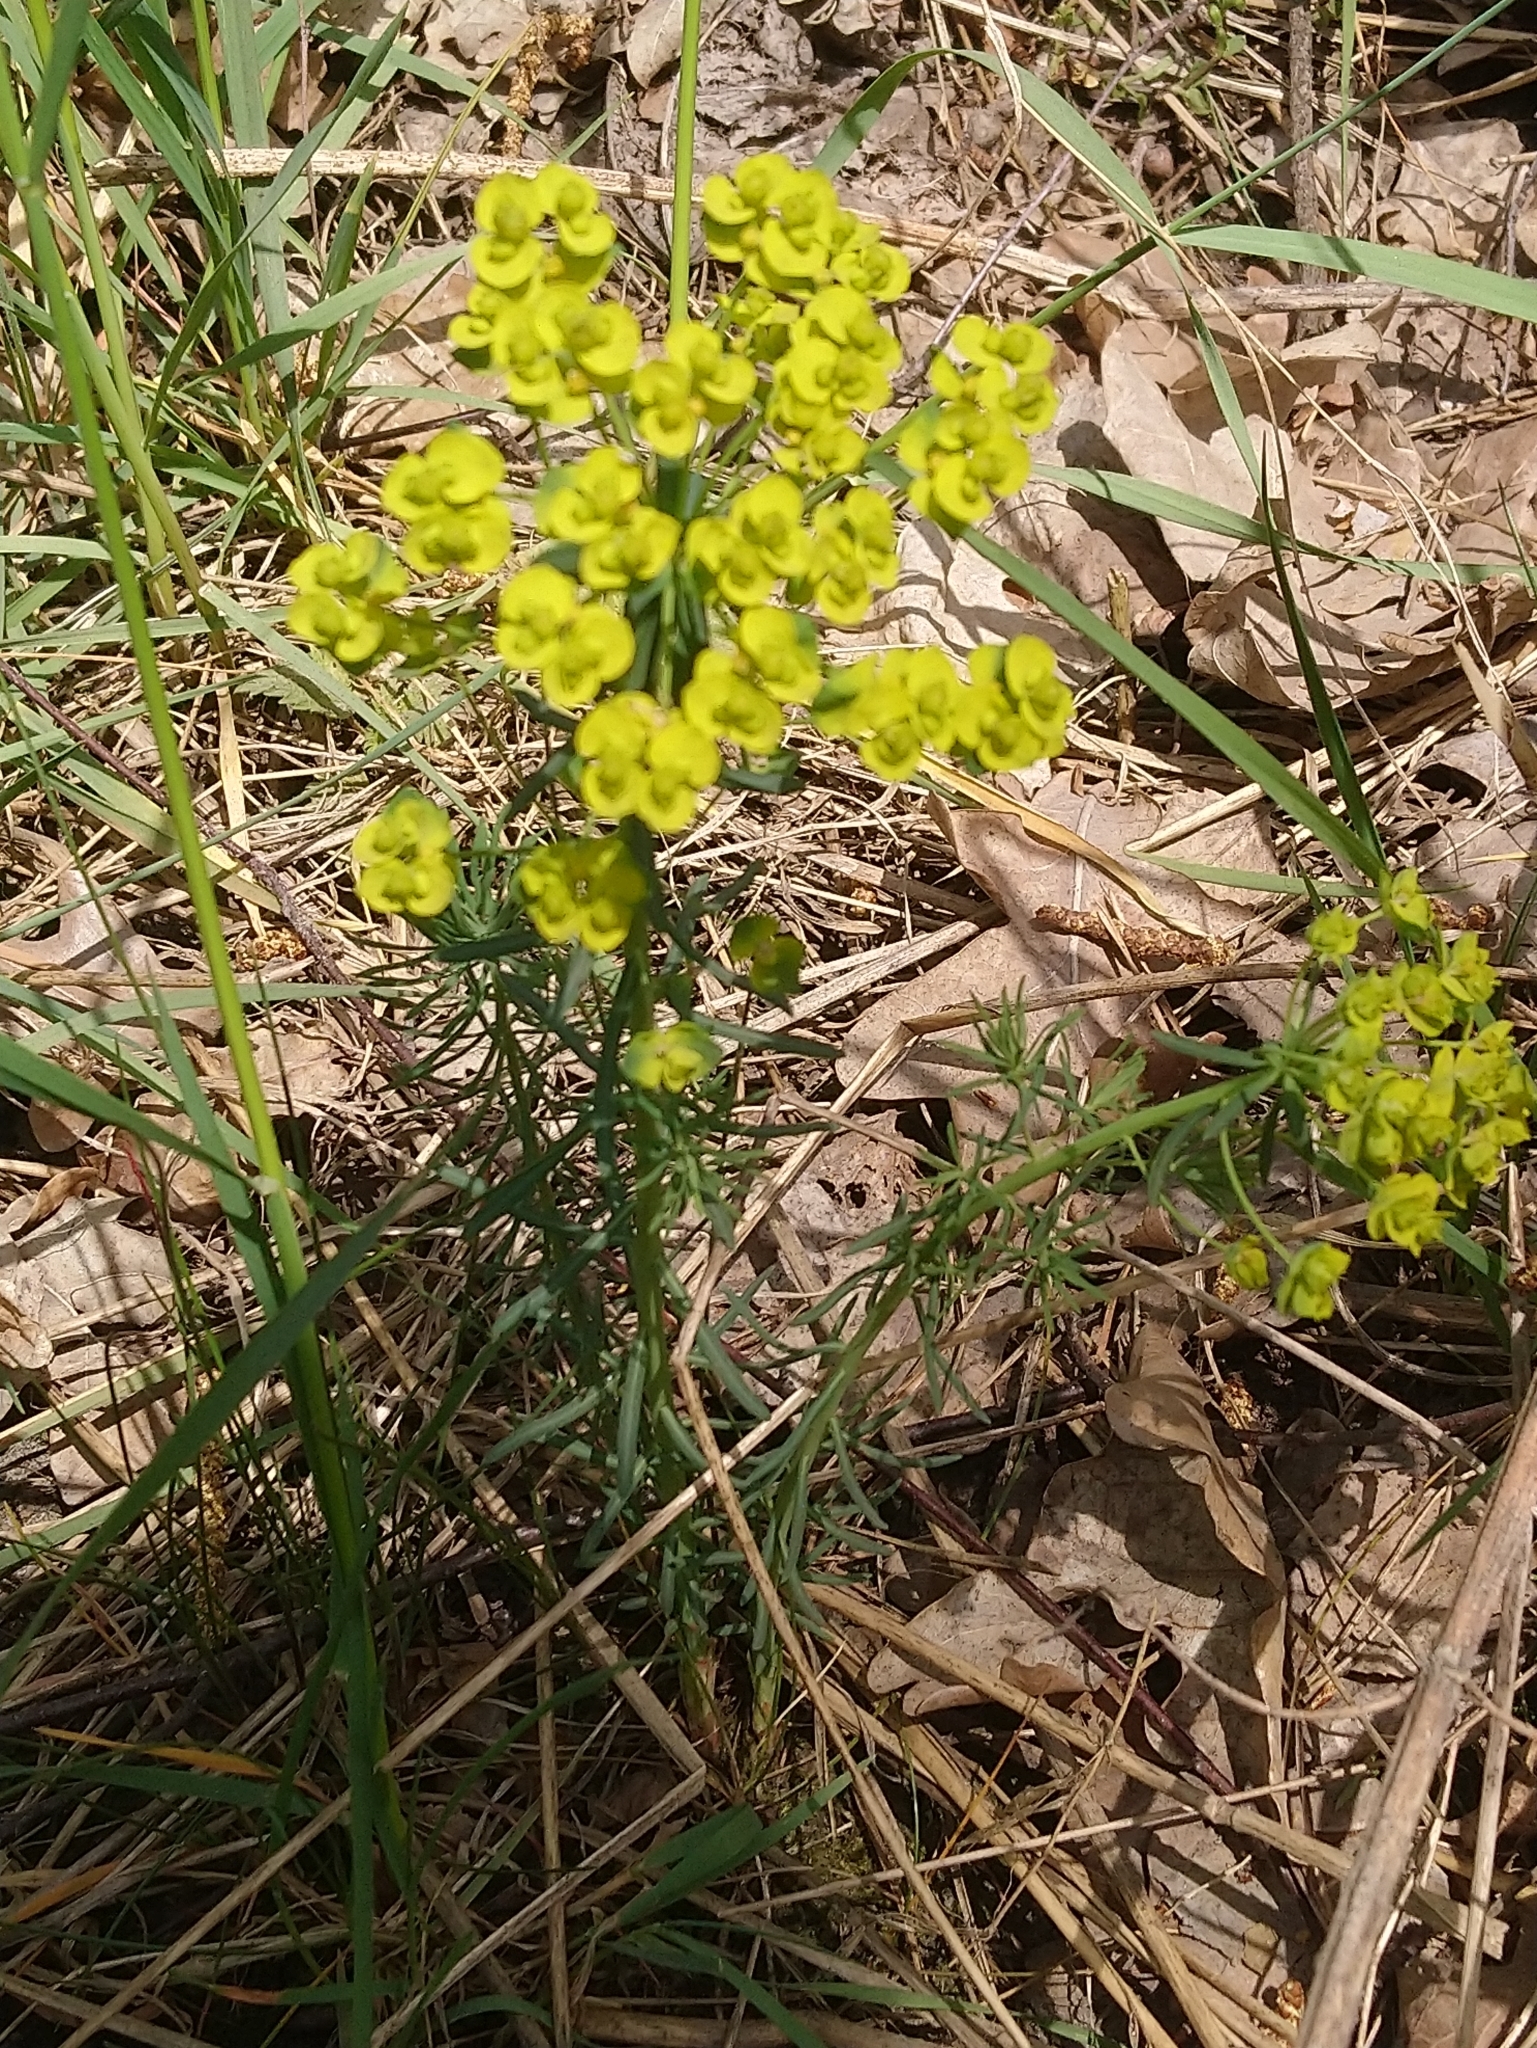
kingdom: Plantae
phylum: Tracheophyta
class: Magnoliopsida
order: Malpighiales
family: Euphorbiaceae
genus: Euphorbia
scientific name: Euphorbia cyparissias
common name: Cypress spurge
